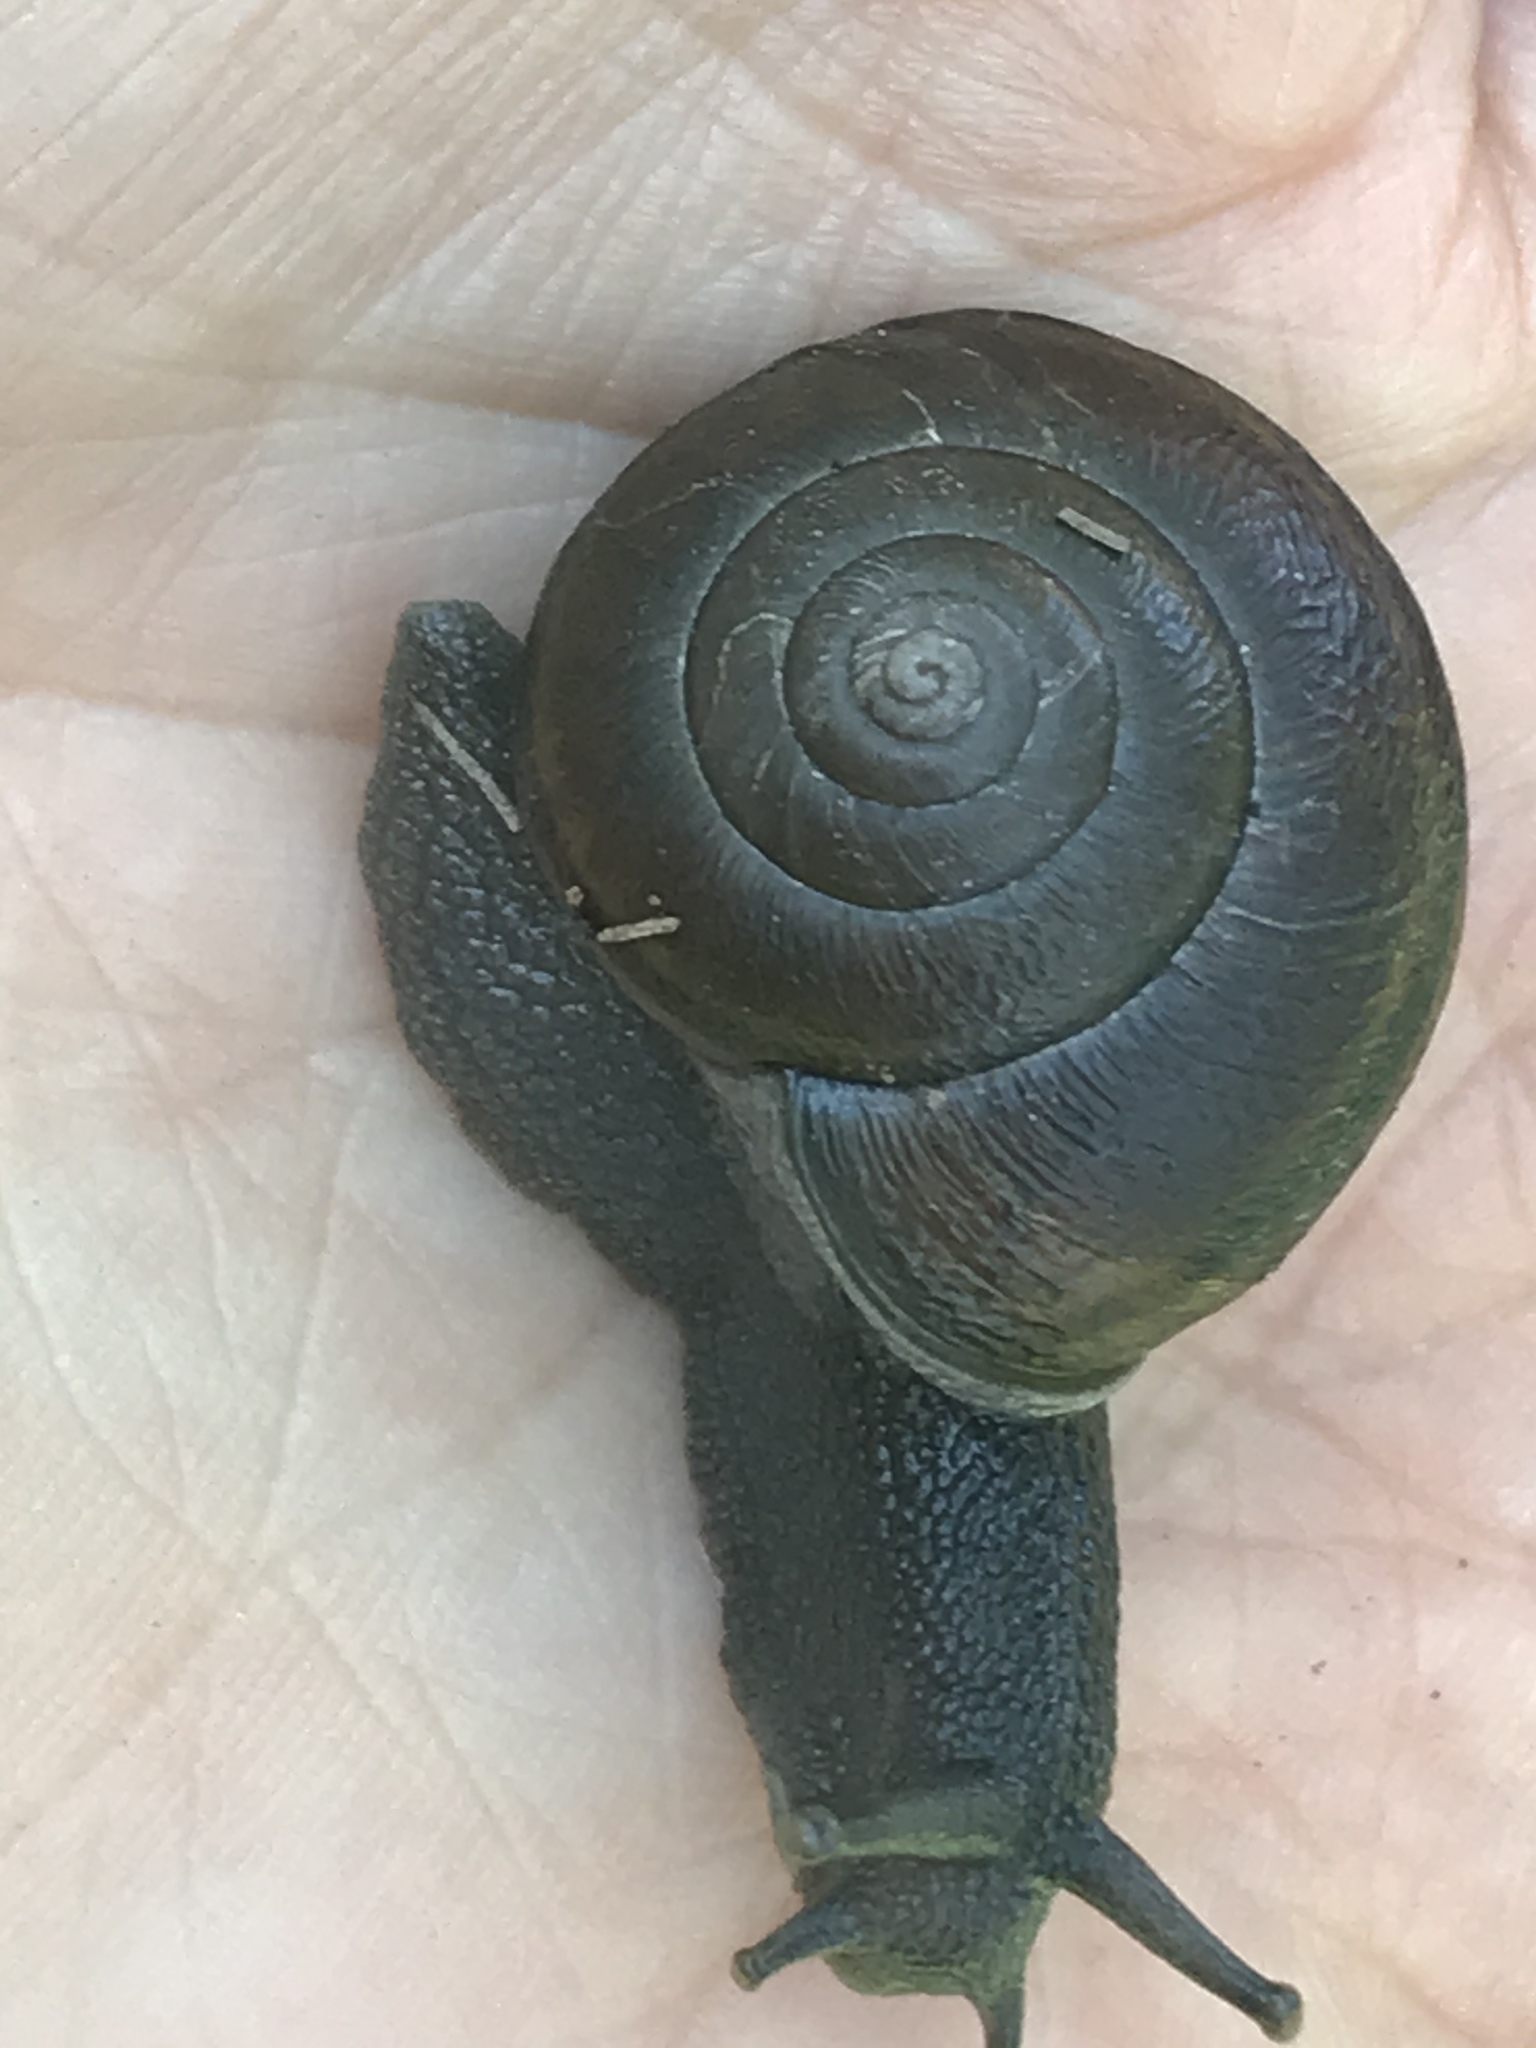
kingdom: Animalia
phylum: Mollusca
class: Gastropoda
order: Stylommatophora
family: Xanthonychidae
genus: Helminthoglypta
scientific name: Helminthoglypta tudiculata
